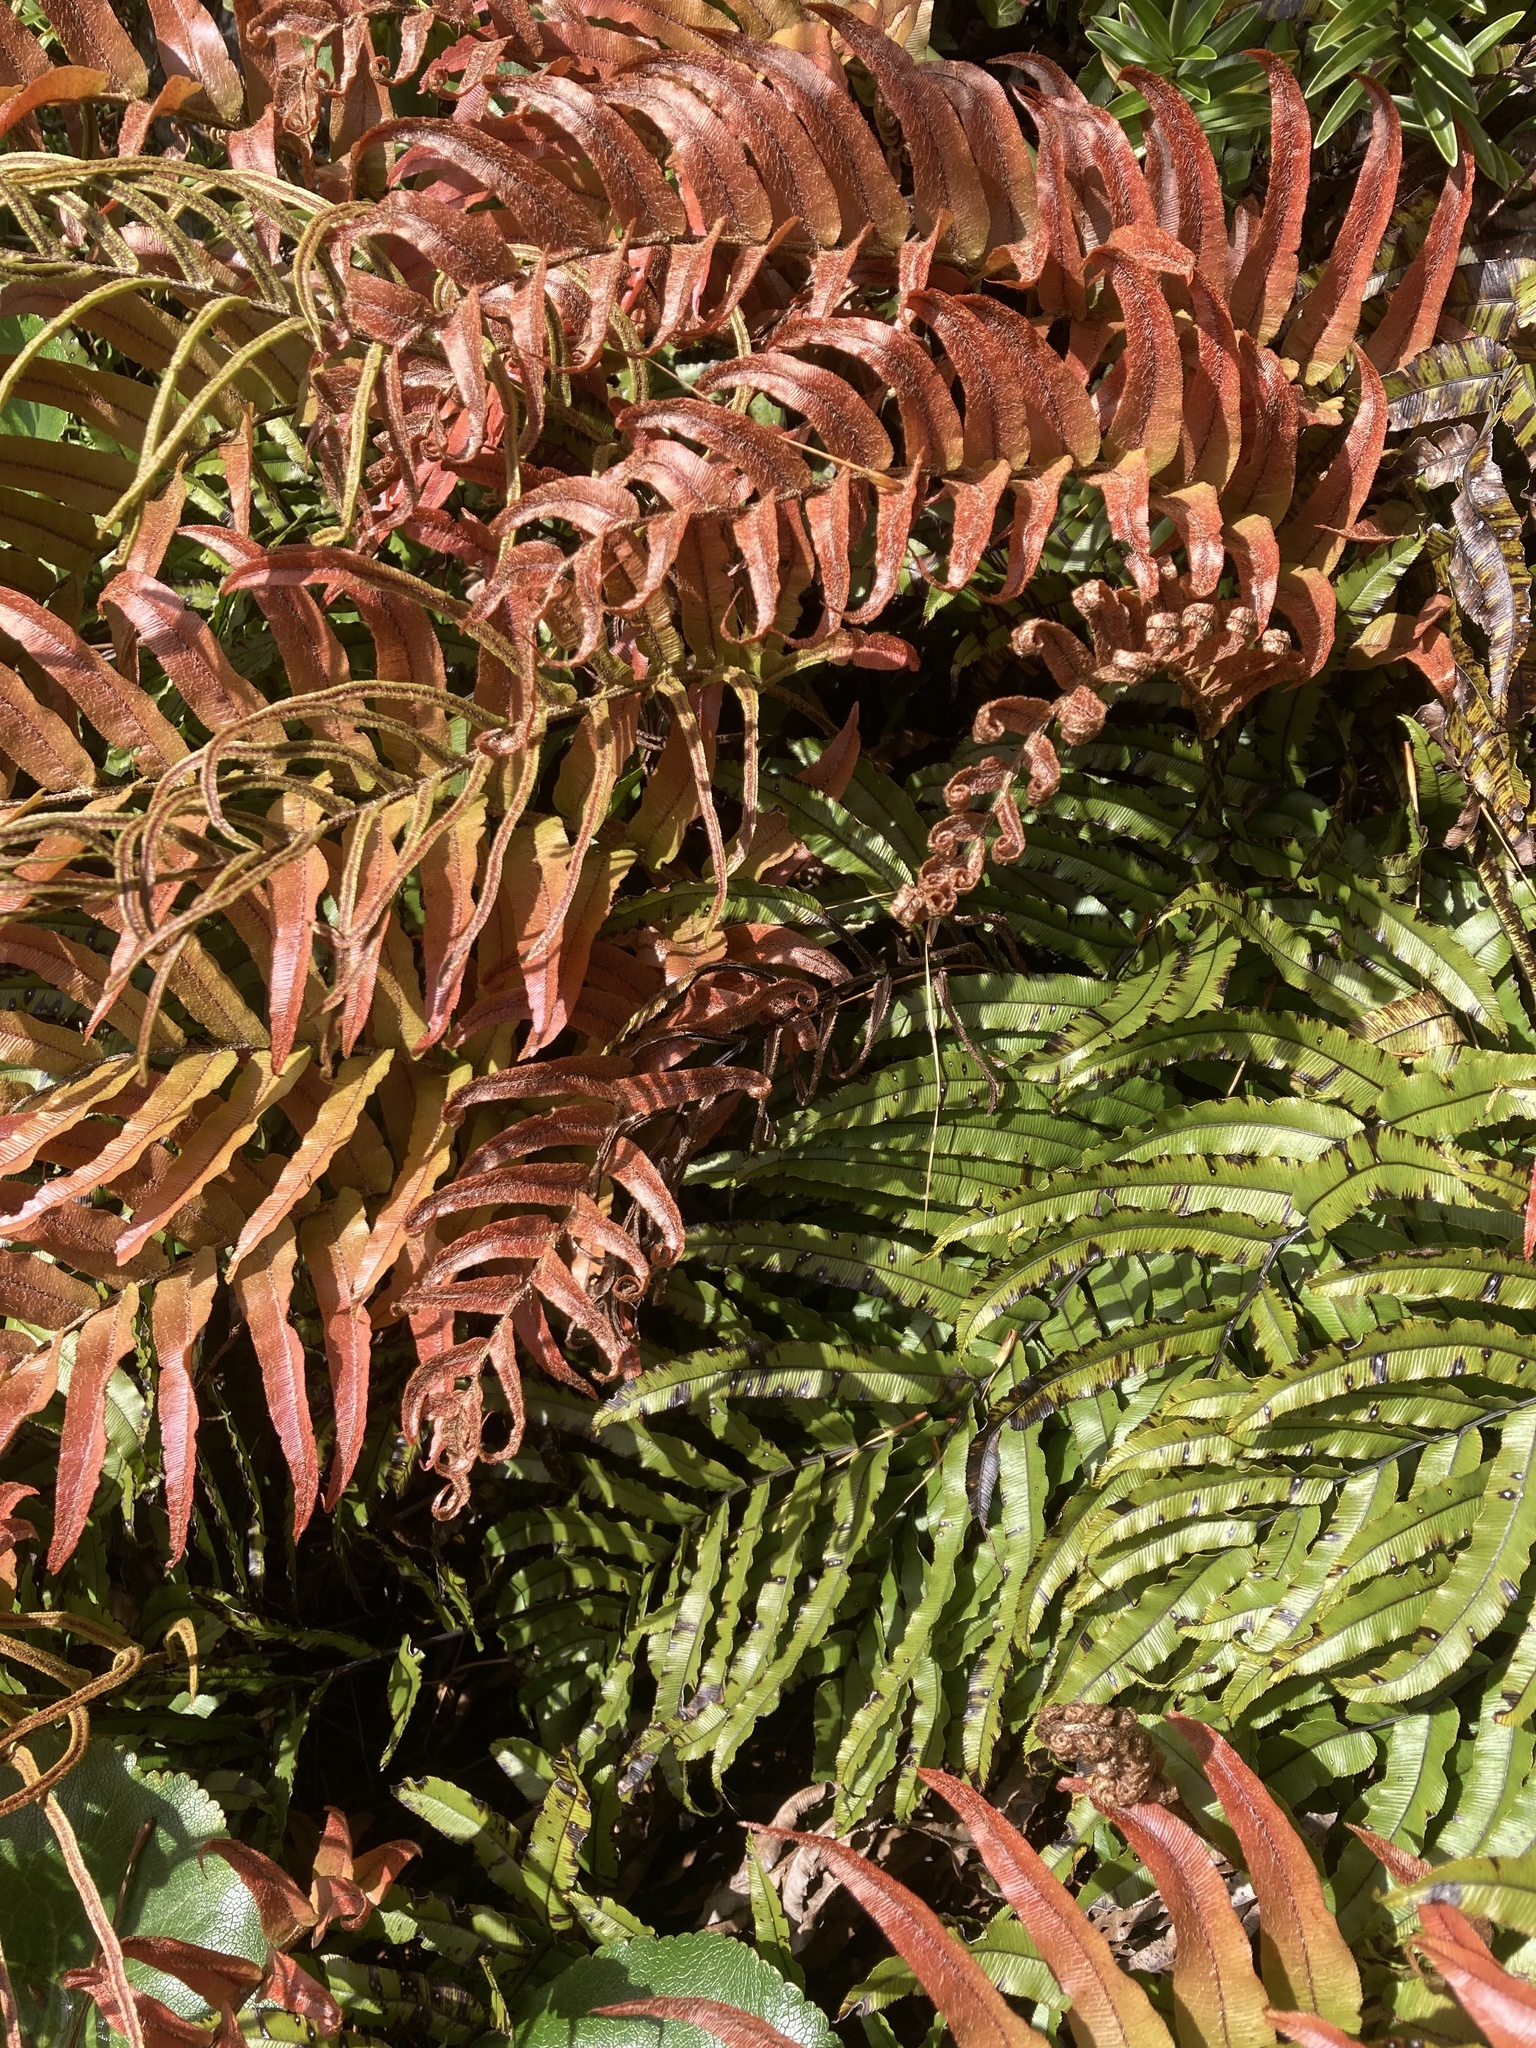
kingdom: Plantae
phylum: Tracheophyta
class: Polypodiopsida
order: Polypodiales
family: Blechnaceae
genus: Parablechnum
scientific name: Parablechnum montanum
